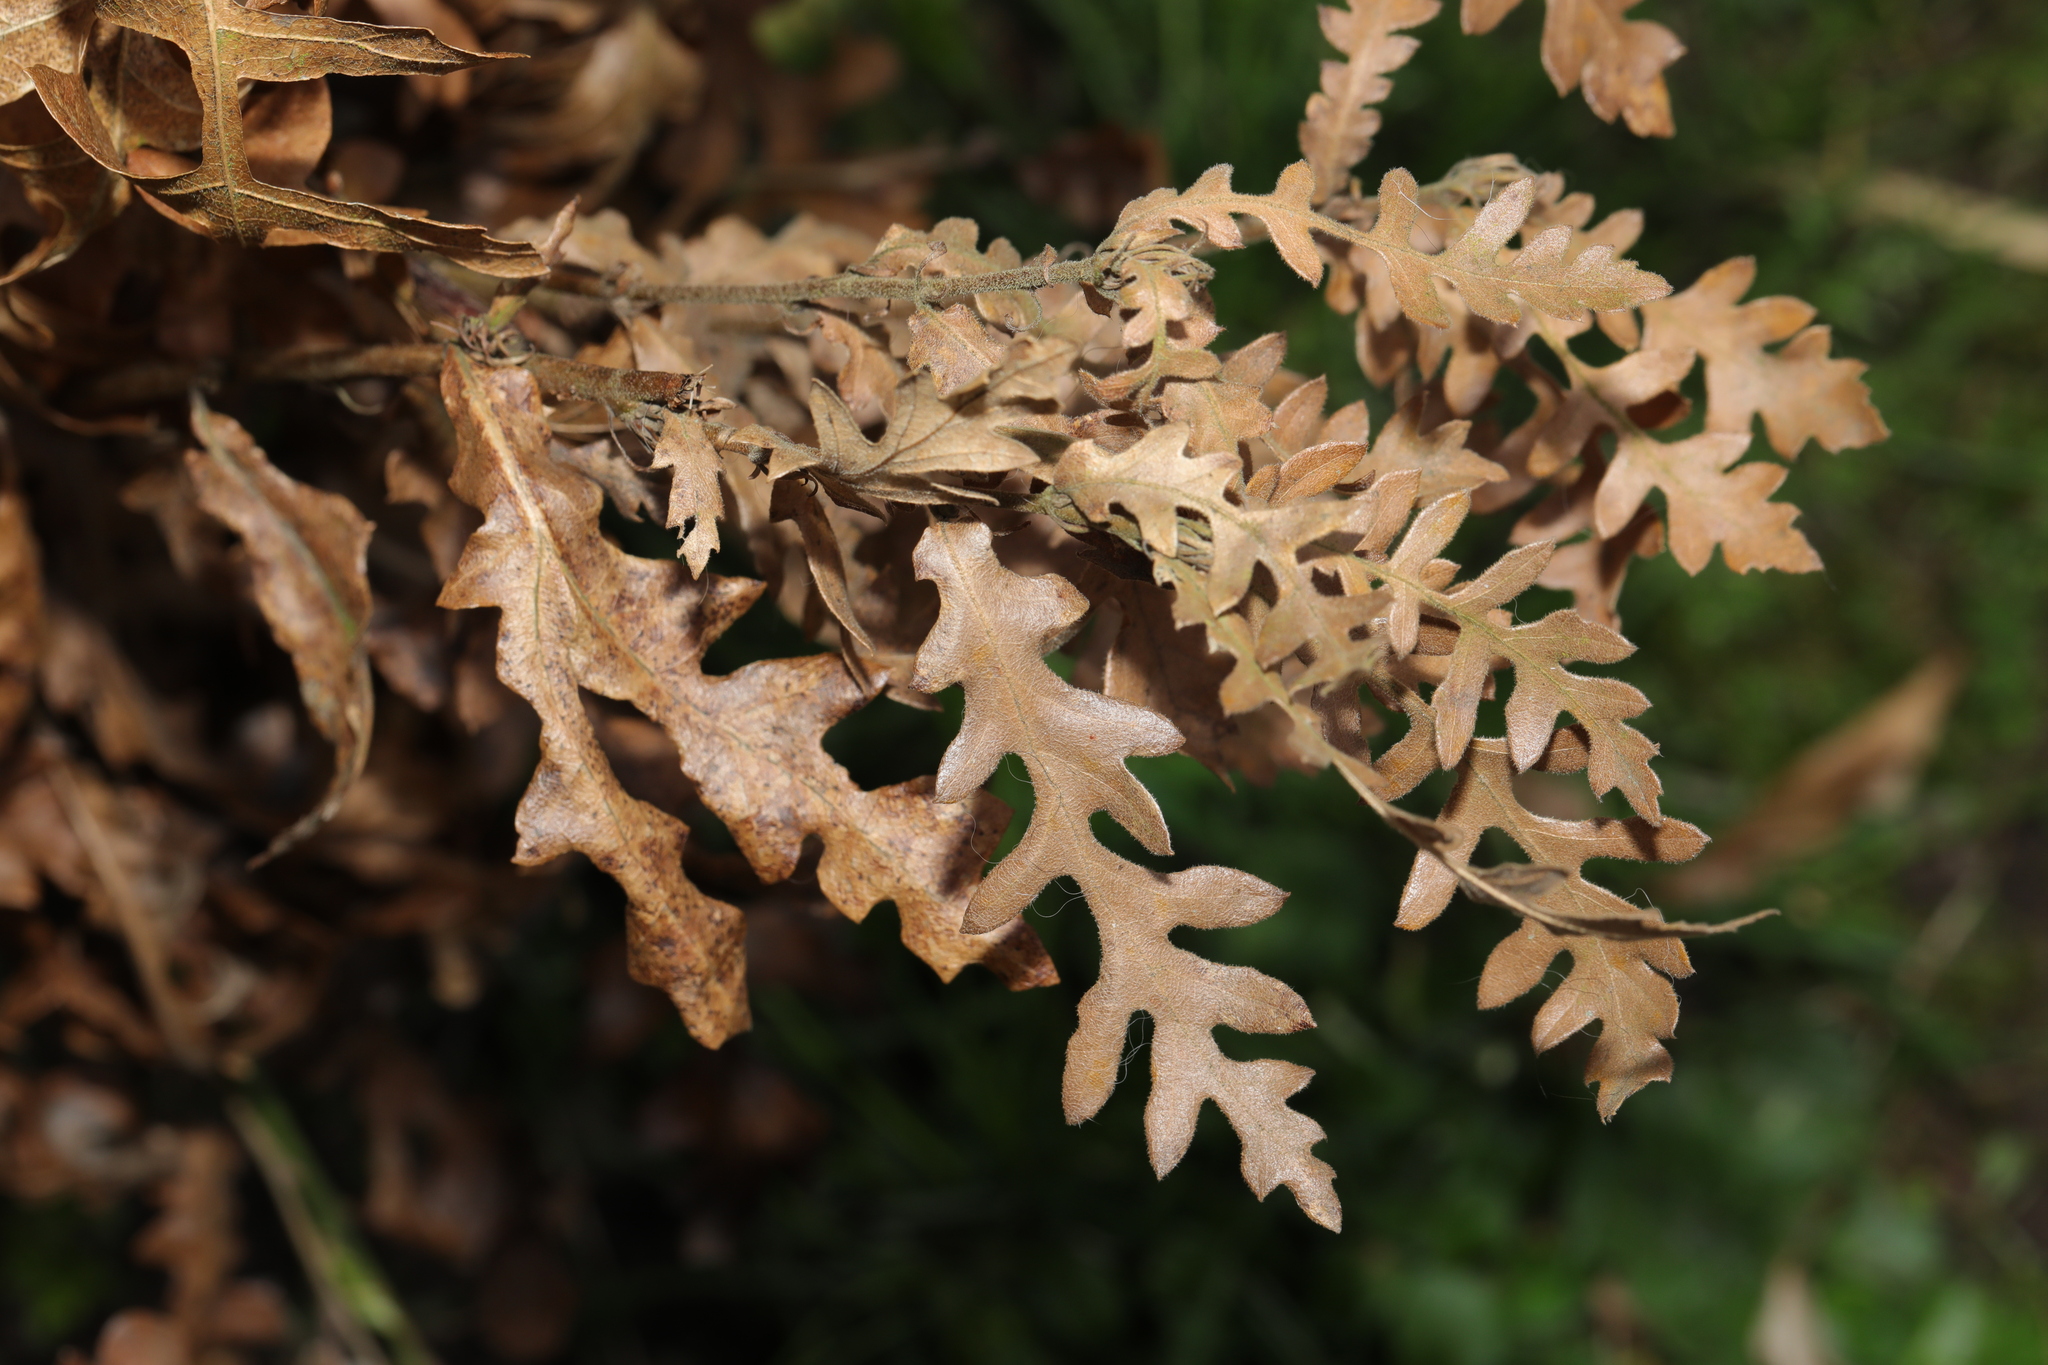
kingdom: Plantae
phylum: Tracheophyta
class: Magnoliopsida
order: Fagales
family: Fagaceae
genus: Quercus
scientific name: Quercus cerris
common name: Turkey oak
